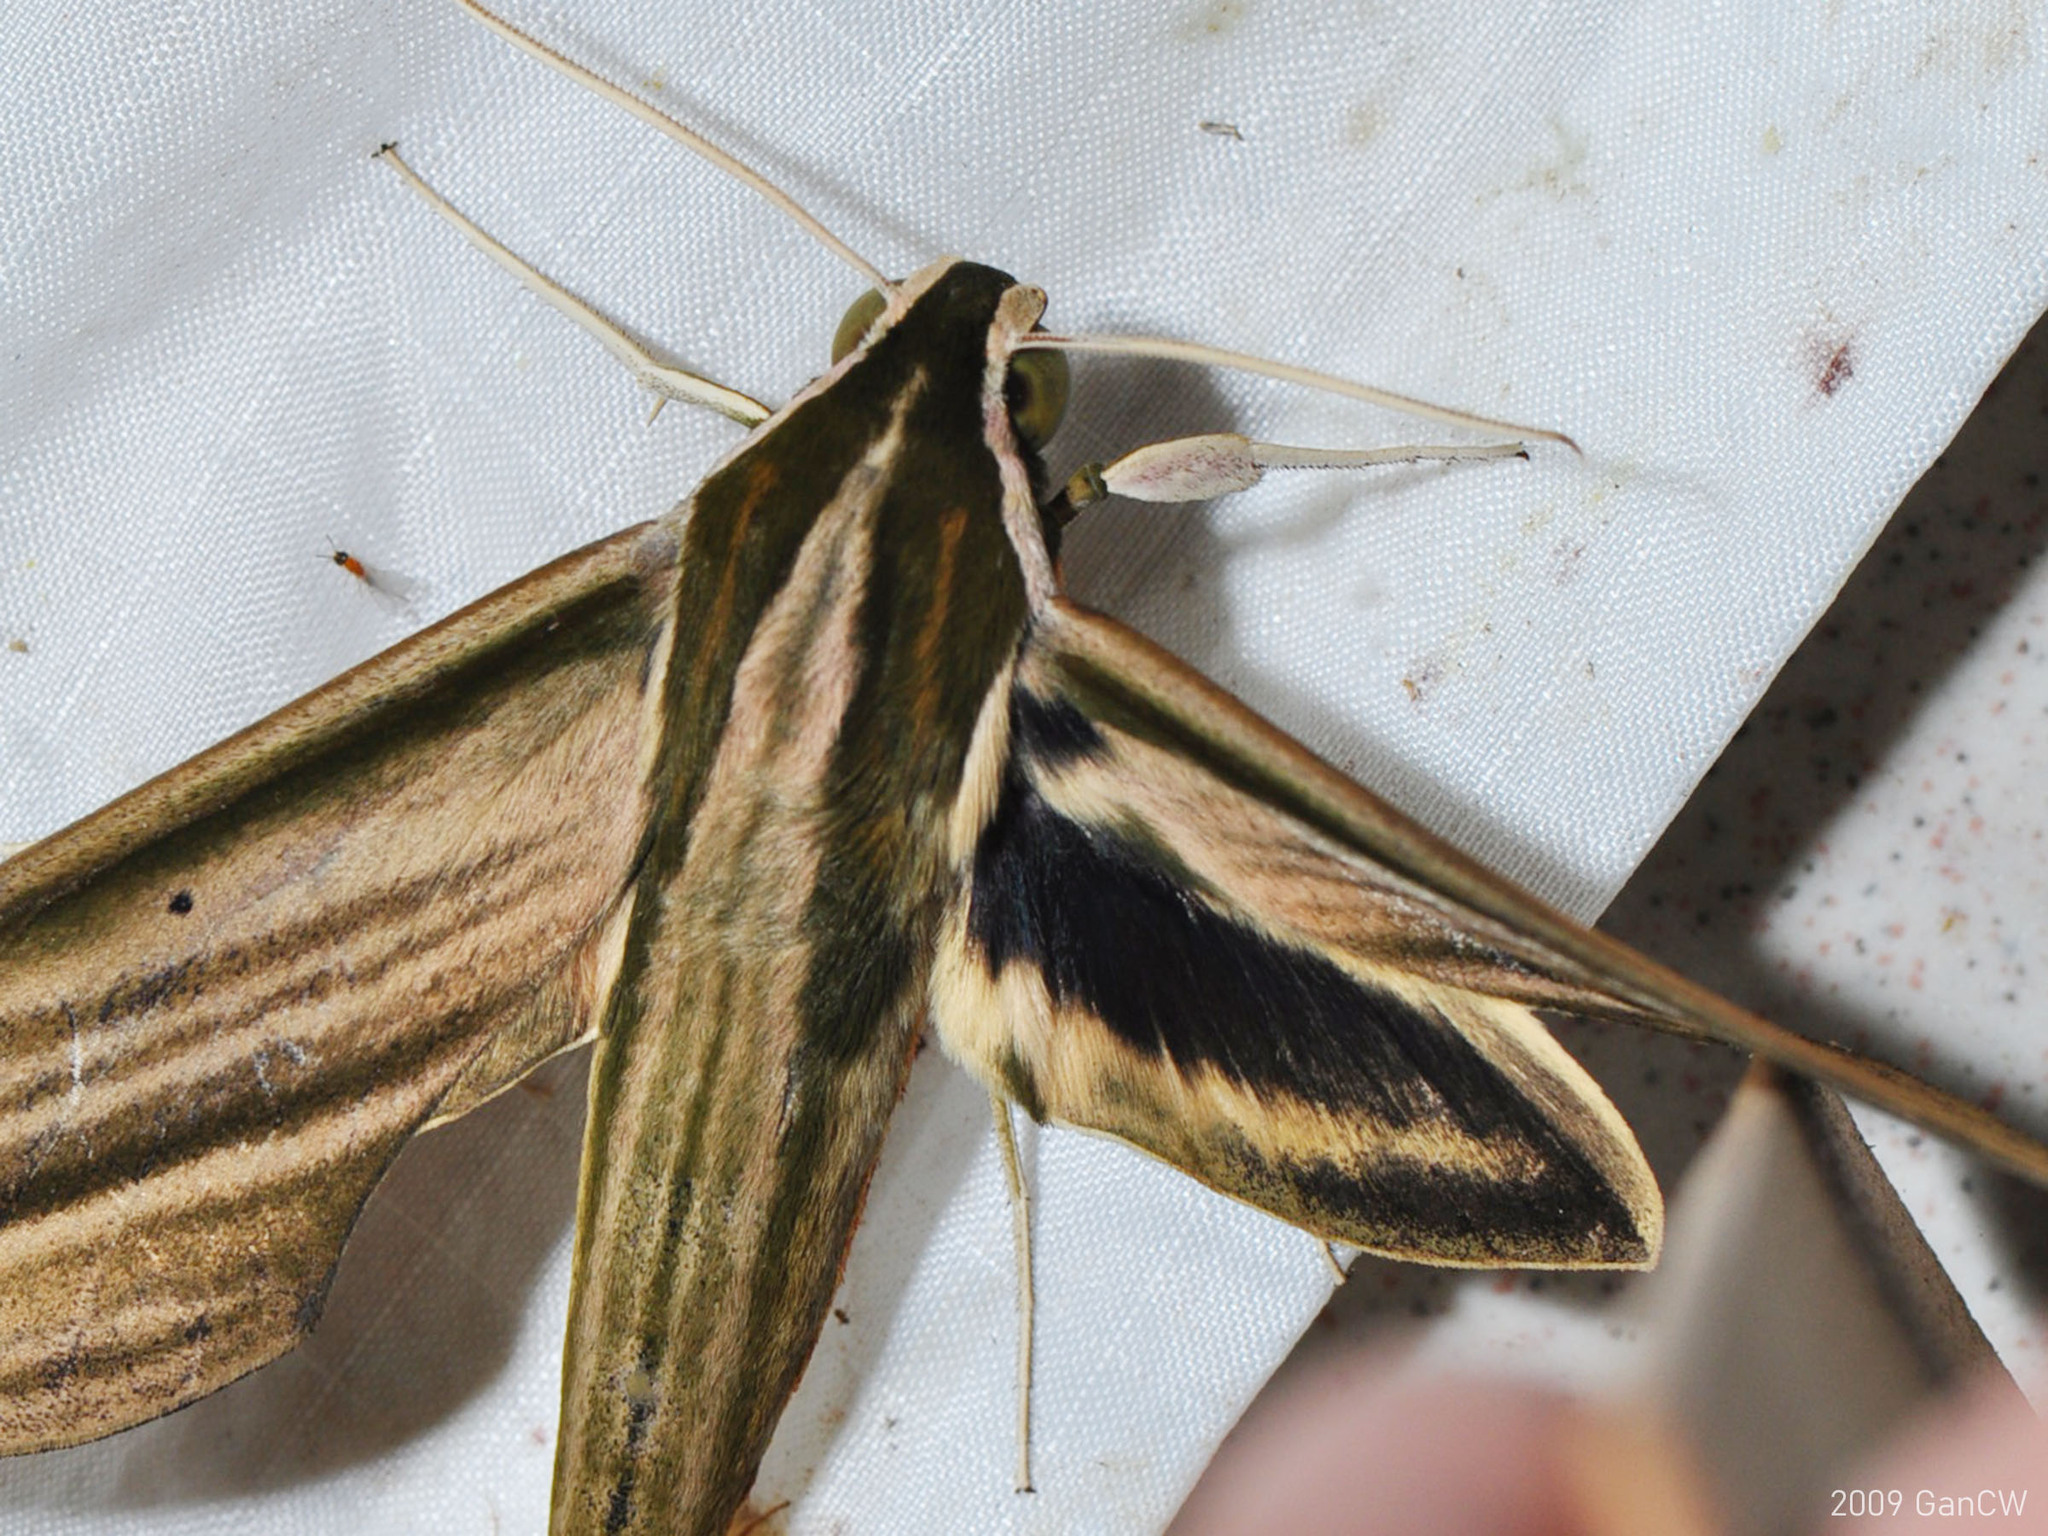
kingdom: Animalia
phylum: Arthropoda
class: Insecta
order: Lepidoptera
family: Sphingidae
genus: Cechetra
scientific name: Cechetra lineosa
